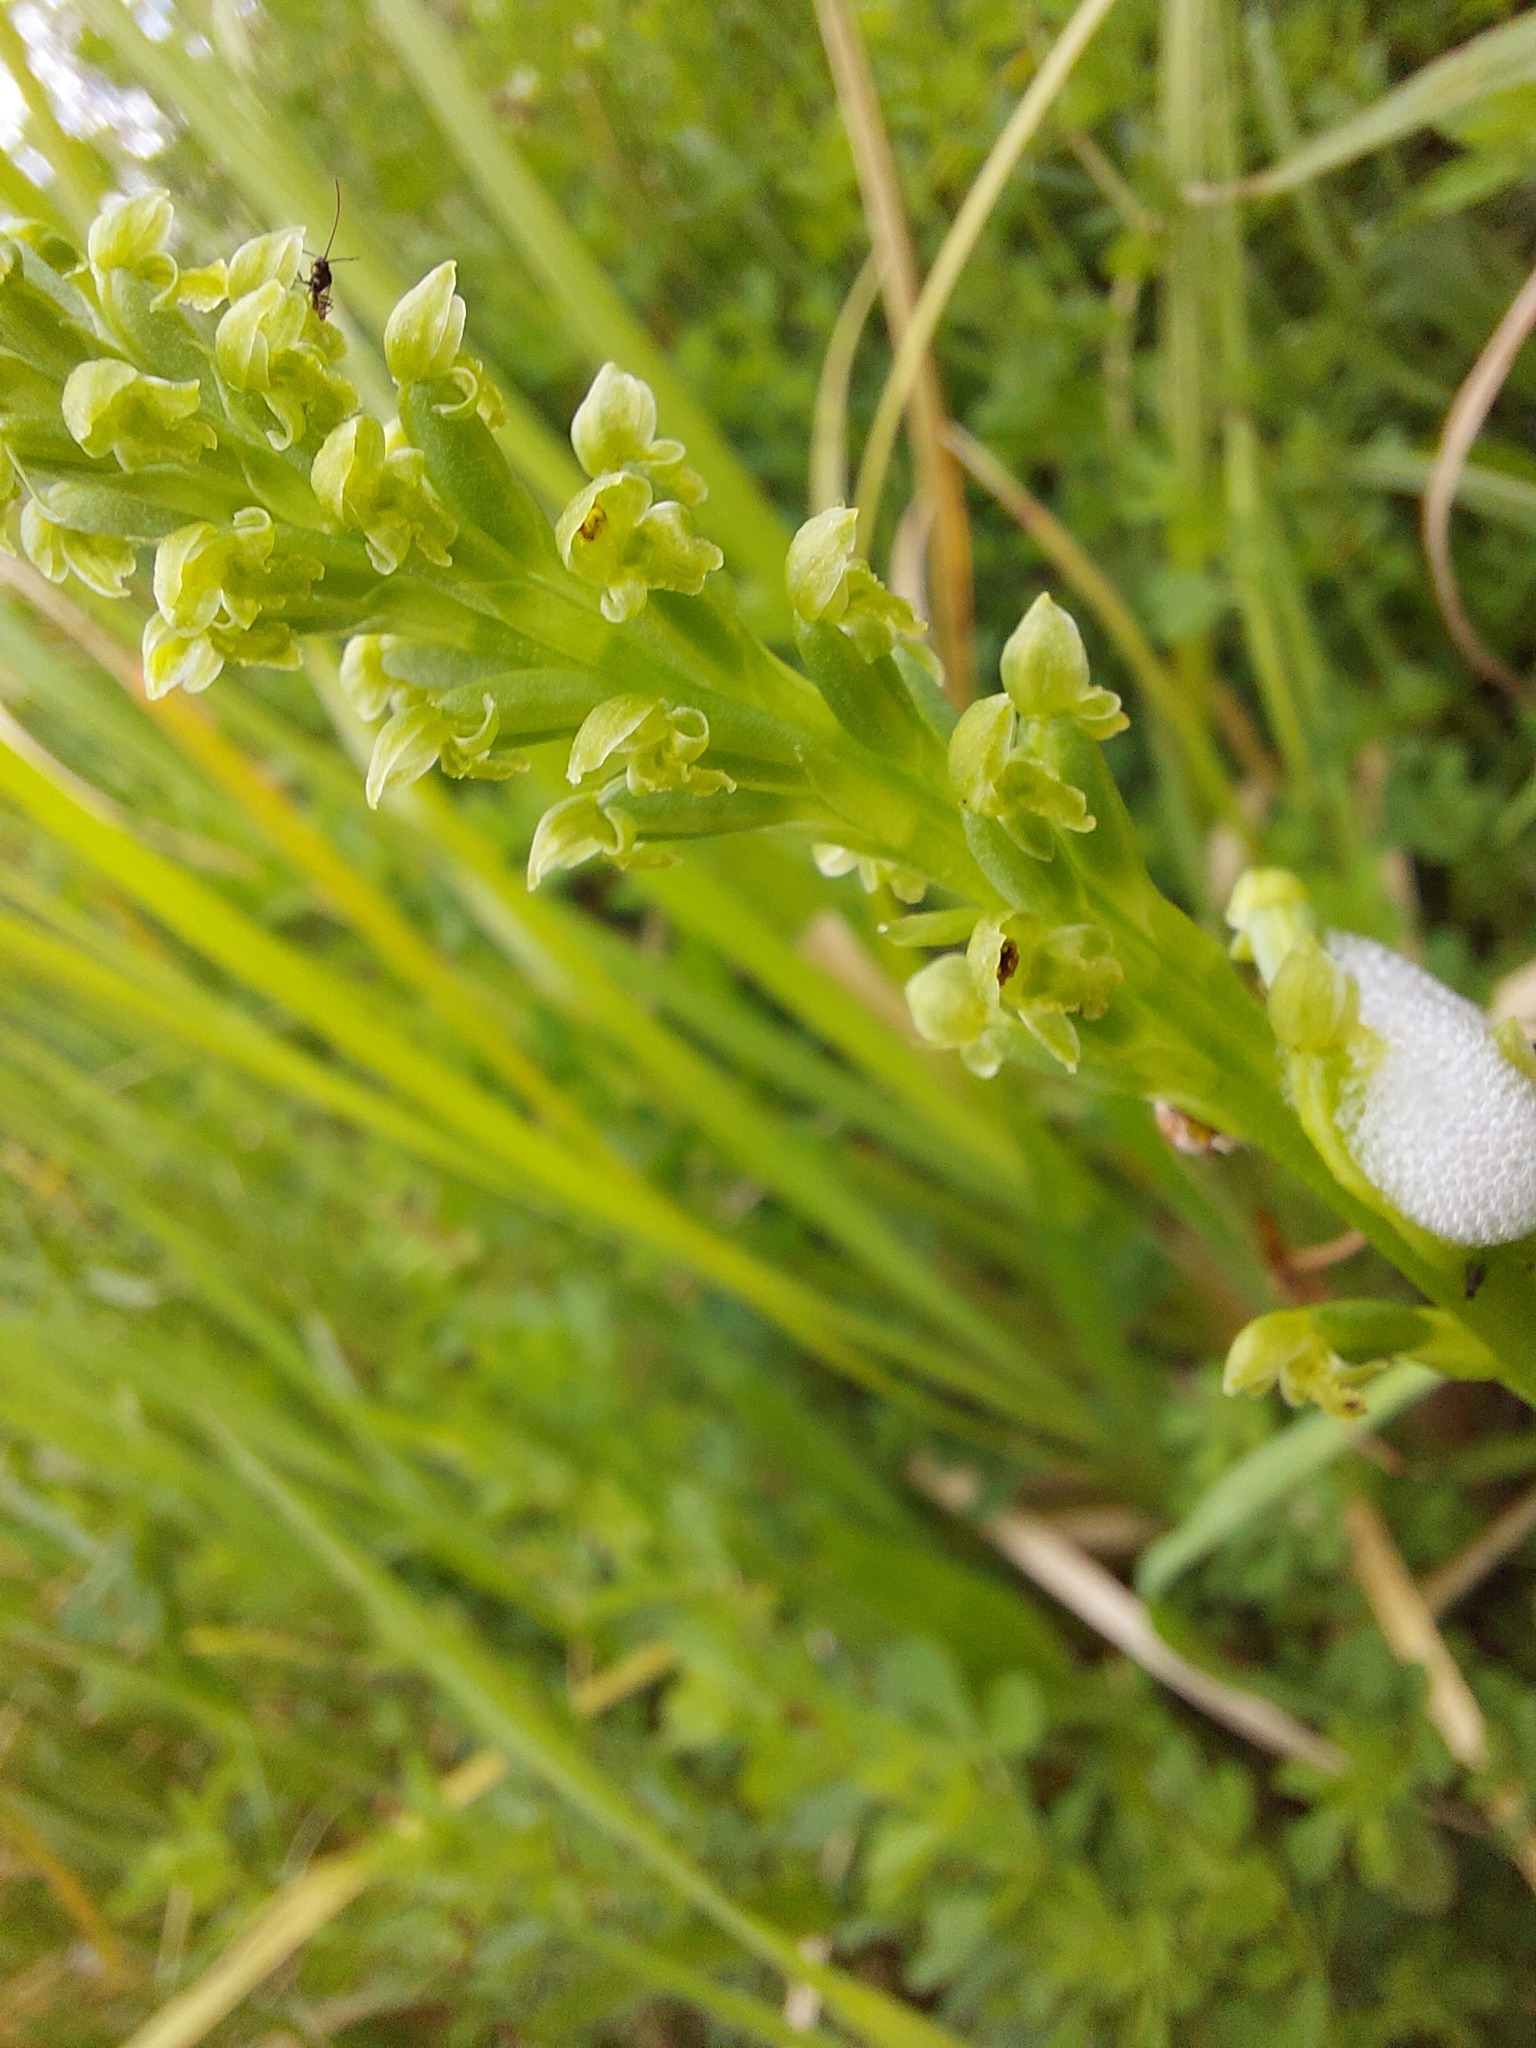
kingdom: Plantae
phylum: Tracheophyta
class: Liliopsida
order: Asparagales
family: Orchidaceae
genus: Microtis
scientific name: Microtis unifolia
